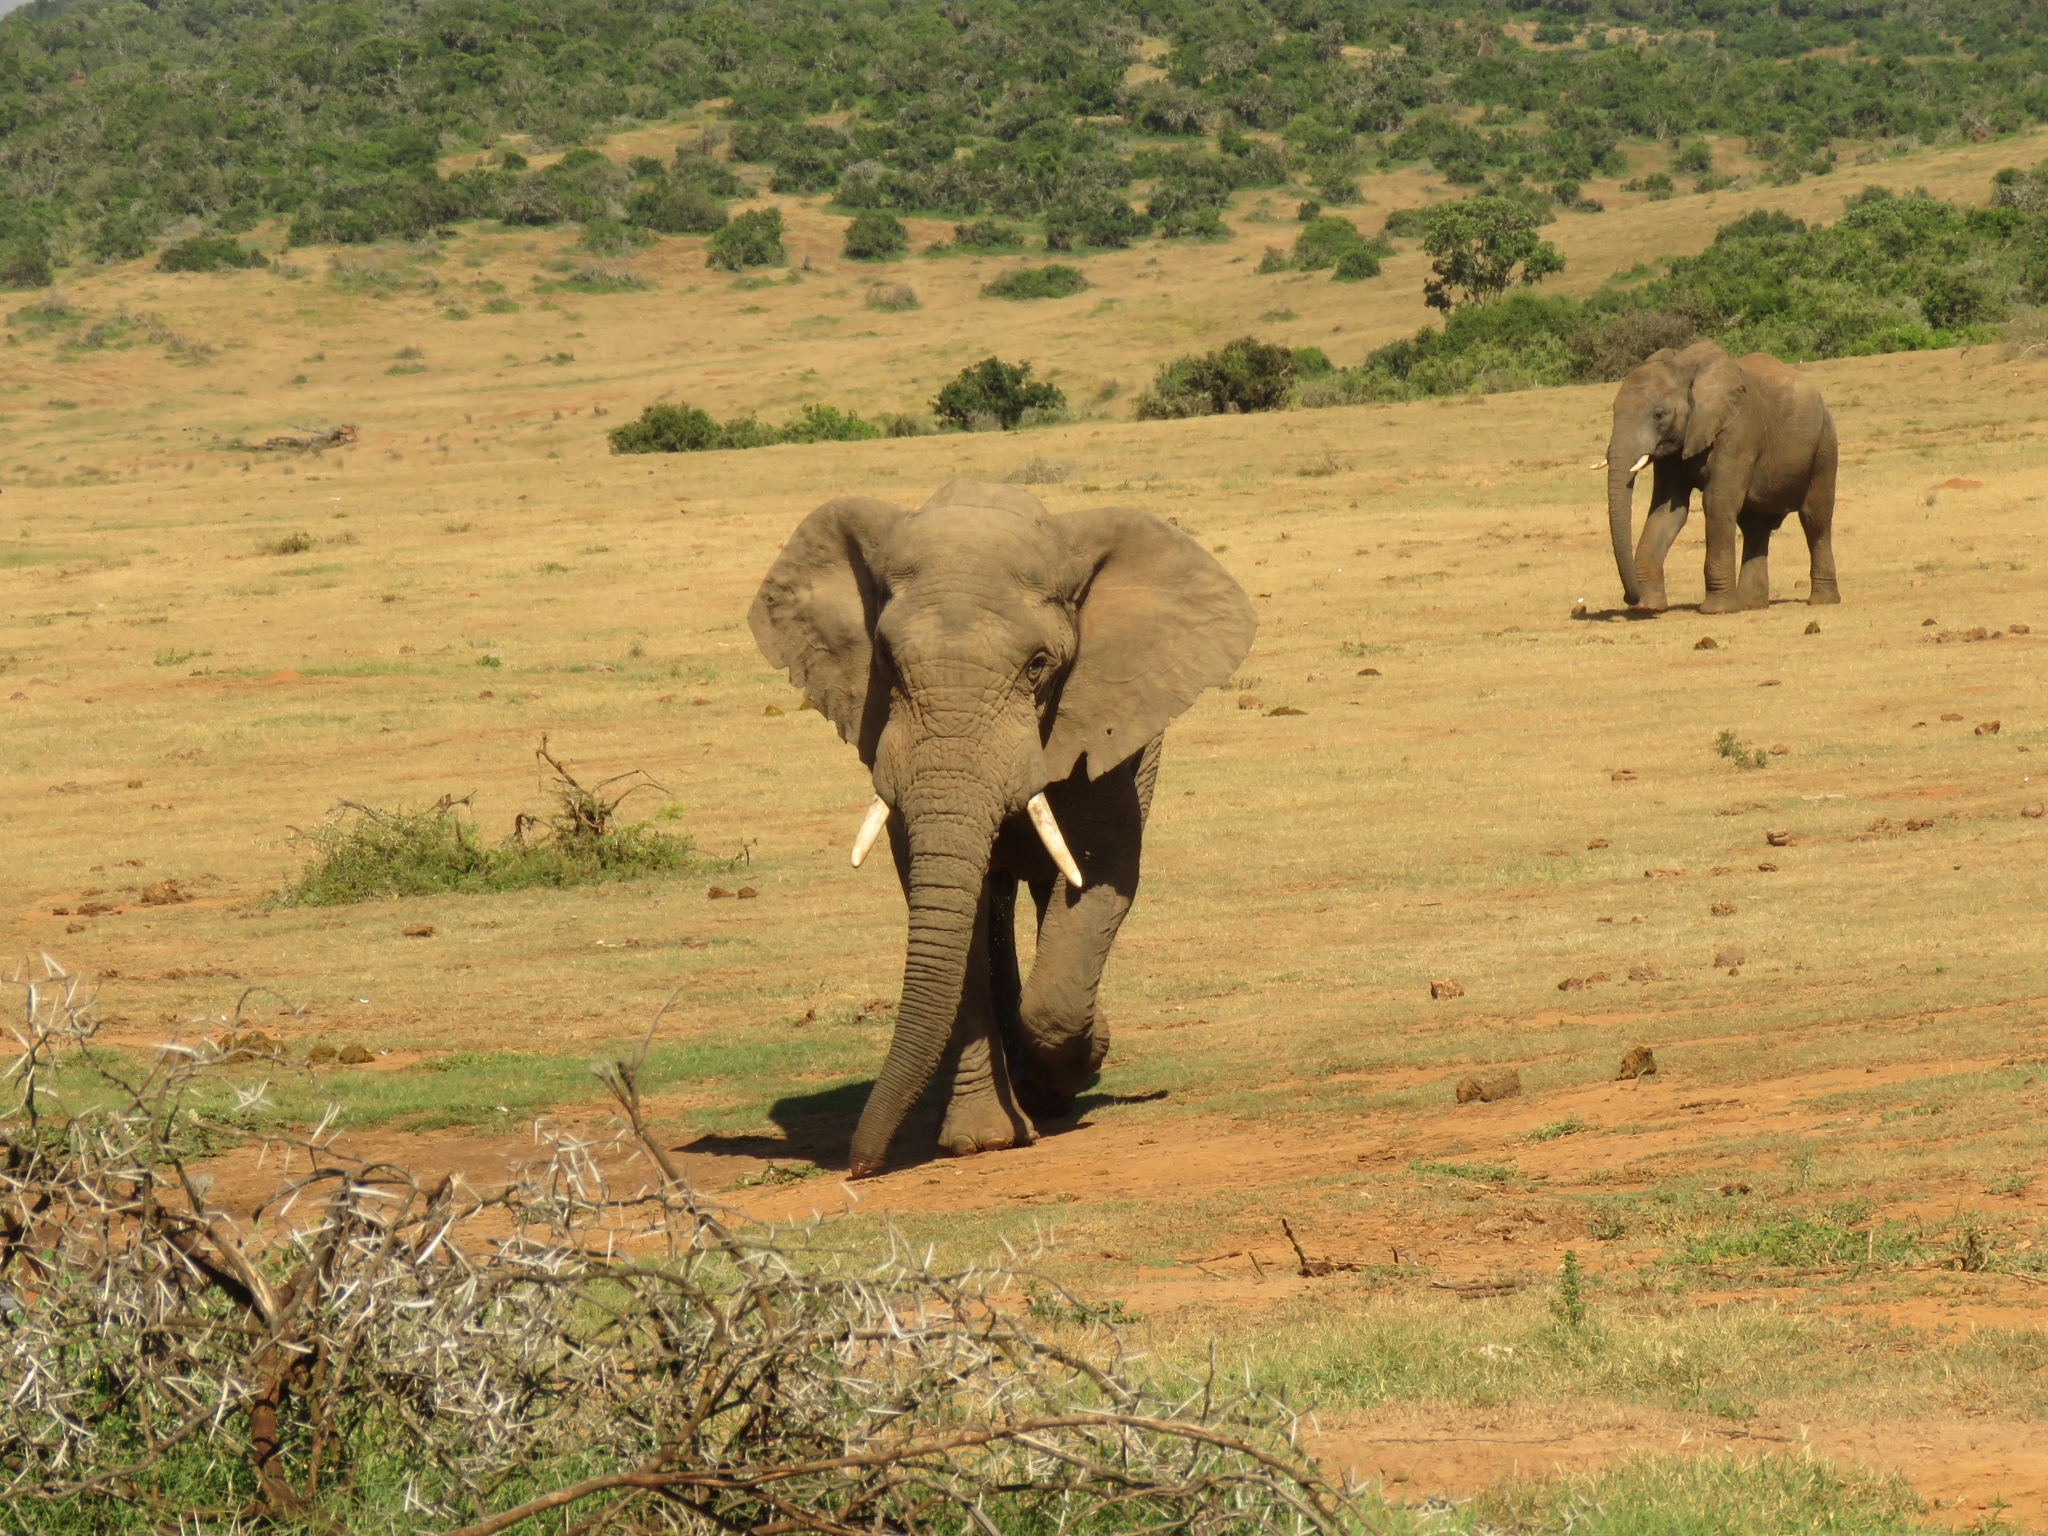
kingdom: Animalia
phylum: Chordata
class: Mammalia
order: Proboscidea
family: Elephantidae
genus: Loxodonta
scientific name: Loxodonta africana
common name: African elephant
